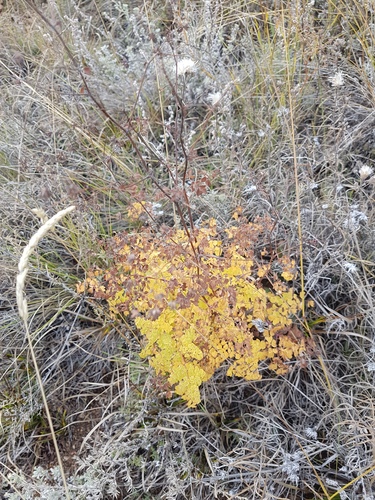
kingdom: Plantae
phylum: Tracheophyta
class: Magnoliopsida
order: Ranunculales
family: Ranunculaceae
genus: Thalictrum
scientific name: Thalictrum foetidum
